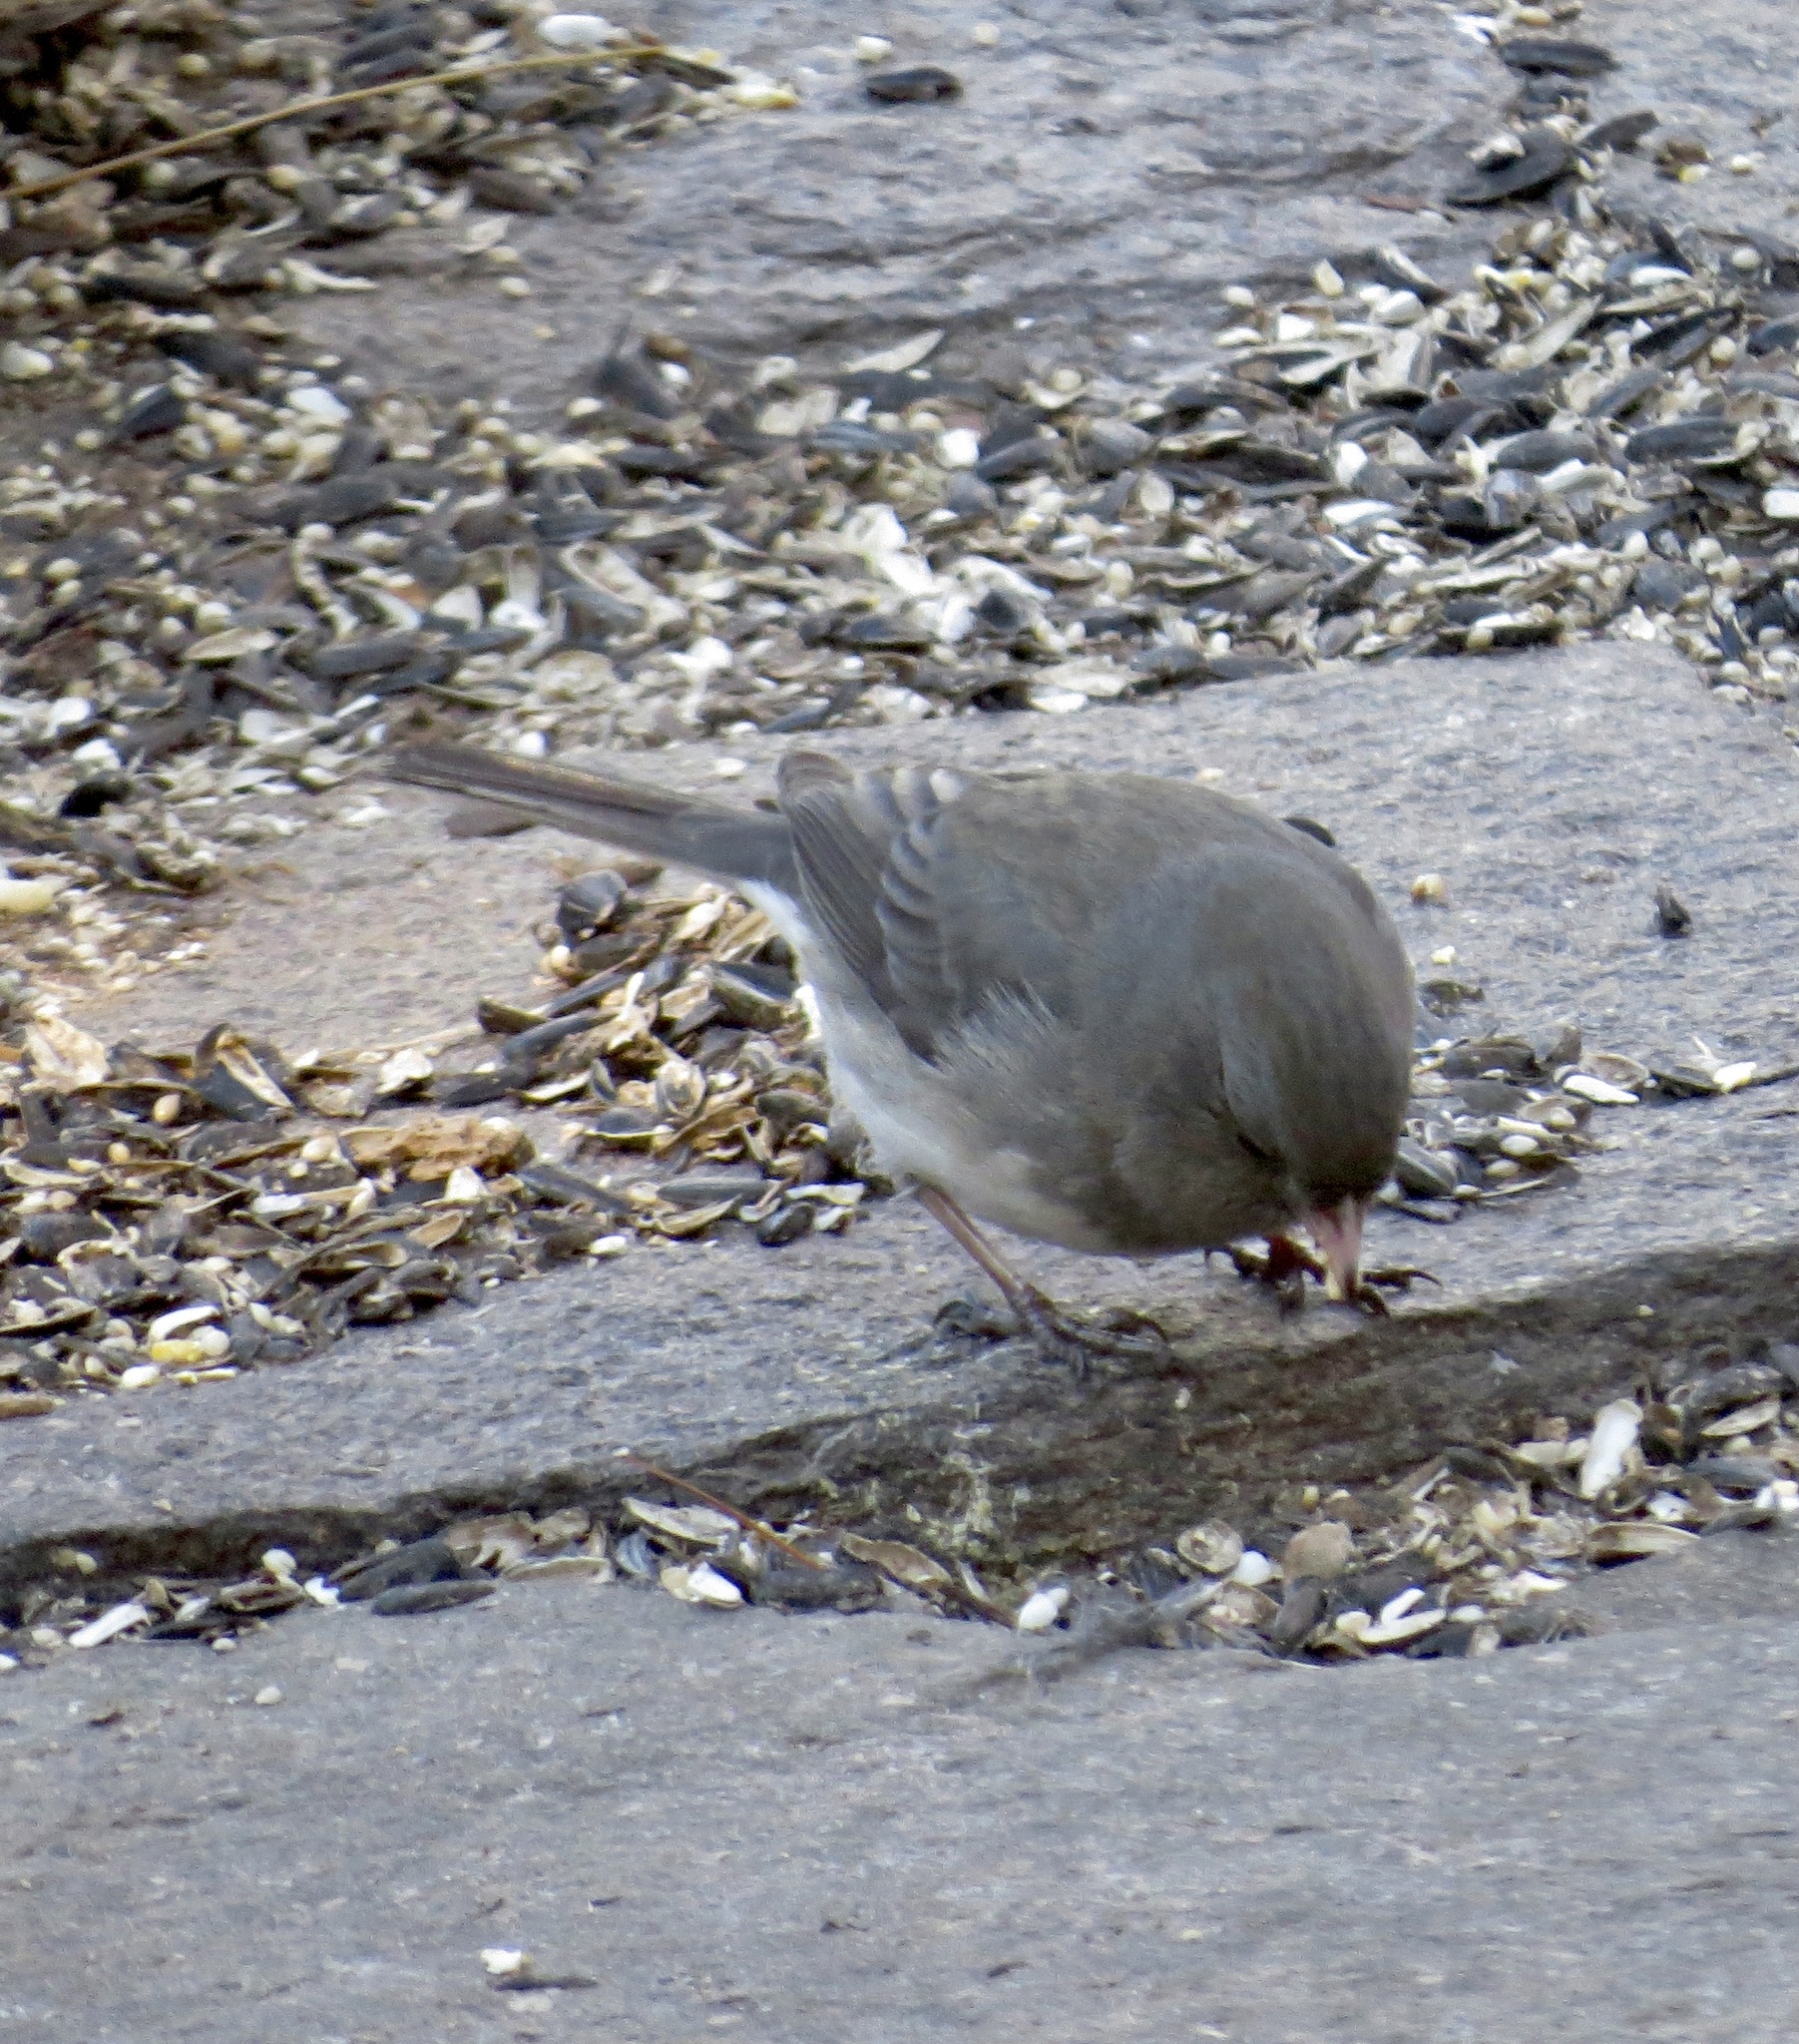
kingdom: Animalia
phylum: Chordata
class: Aves
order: Passeriformes
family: Passerellidae
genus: Junco
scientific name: Junco hyemalis
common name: Dark-eyed junco
